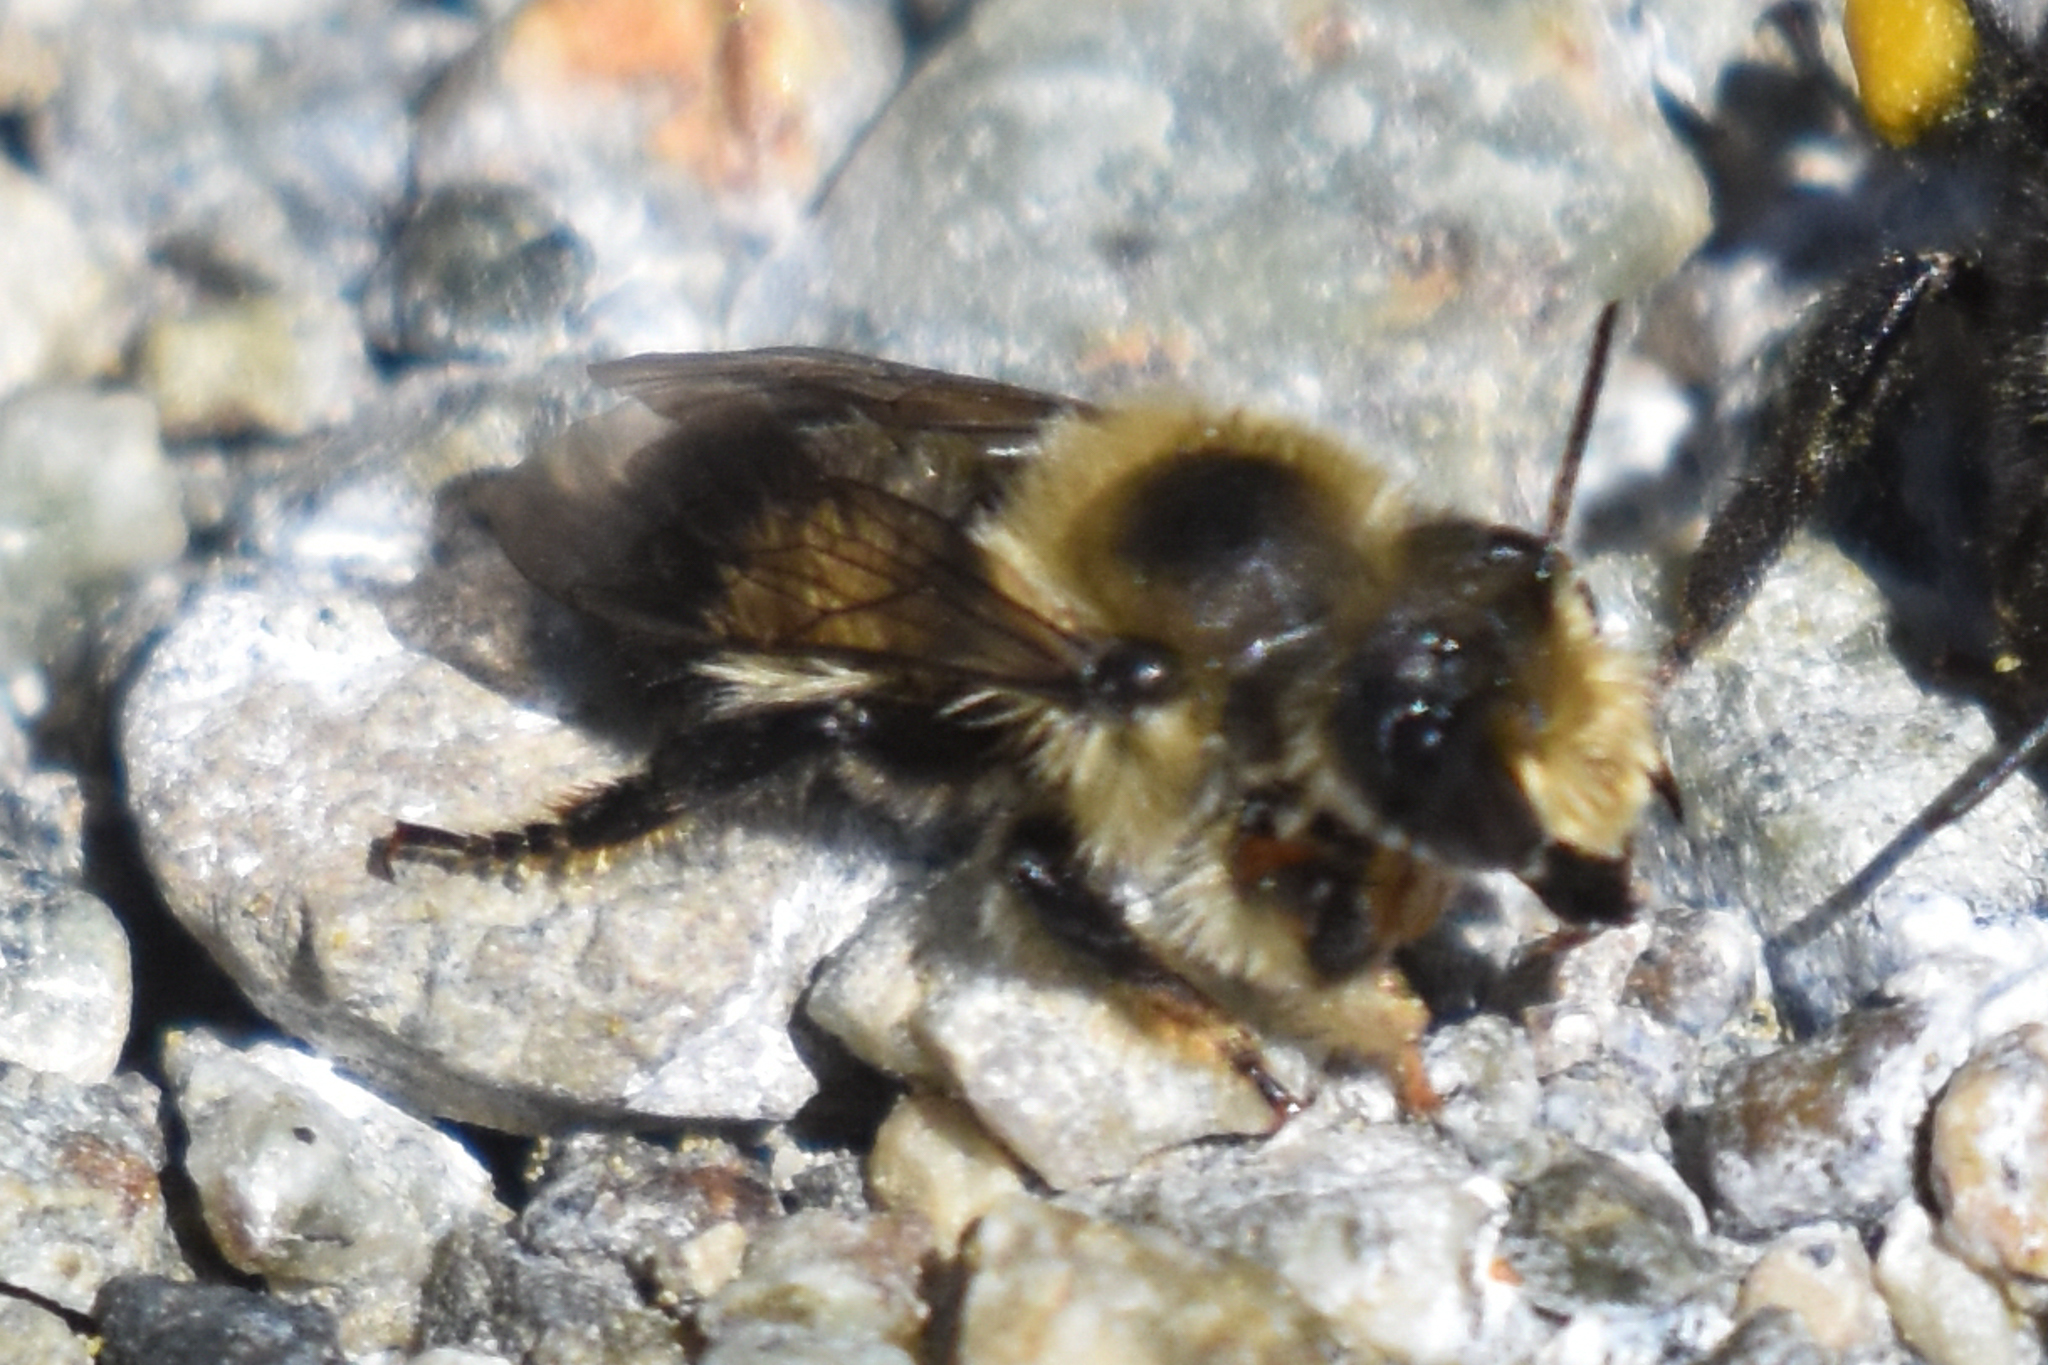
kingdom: Animalia
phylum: Arthropoda
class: Insecta
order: Hymenoptera
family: Megachilidae
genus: Megachile
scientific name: Megachile melanophaea
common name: Black-and-gray leafcutter bee
